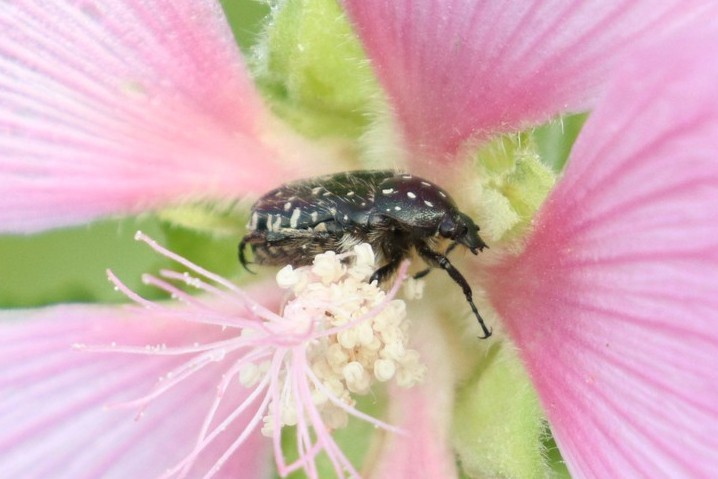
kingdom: Animalia
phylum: Arthropoda
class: Insecta
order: Coleoptera
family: Scarabaeidae
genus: Oxythyrea
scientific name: Oxythyrea funesta
